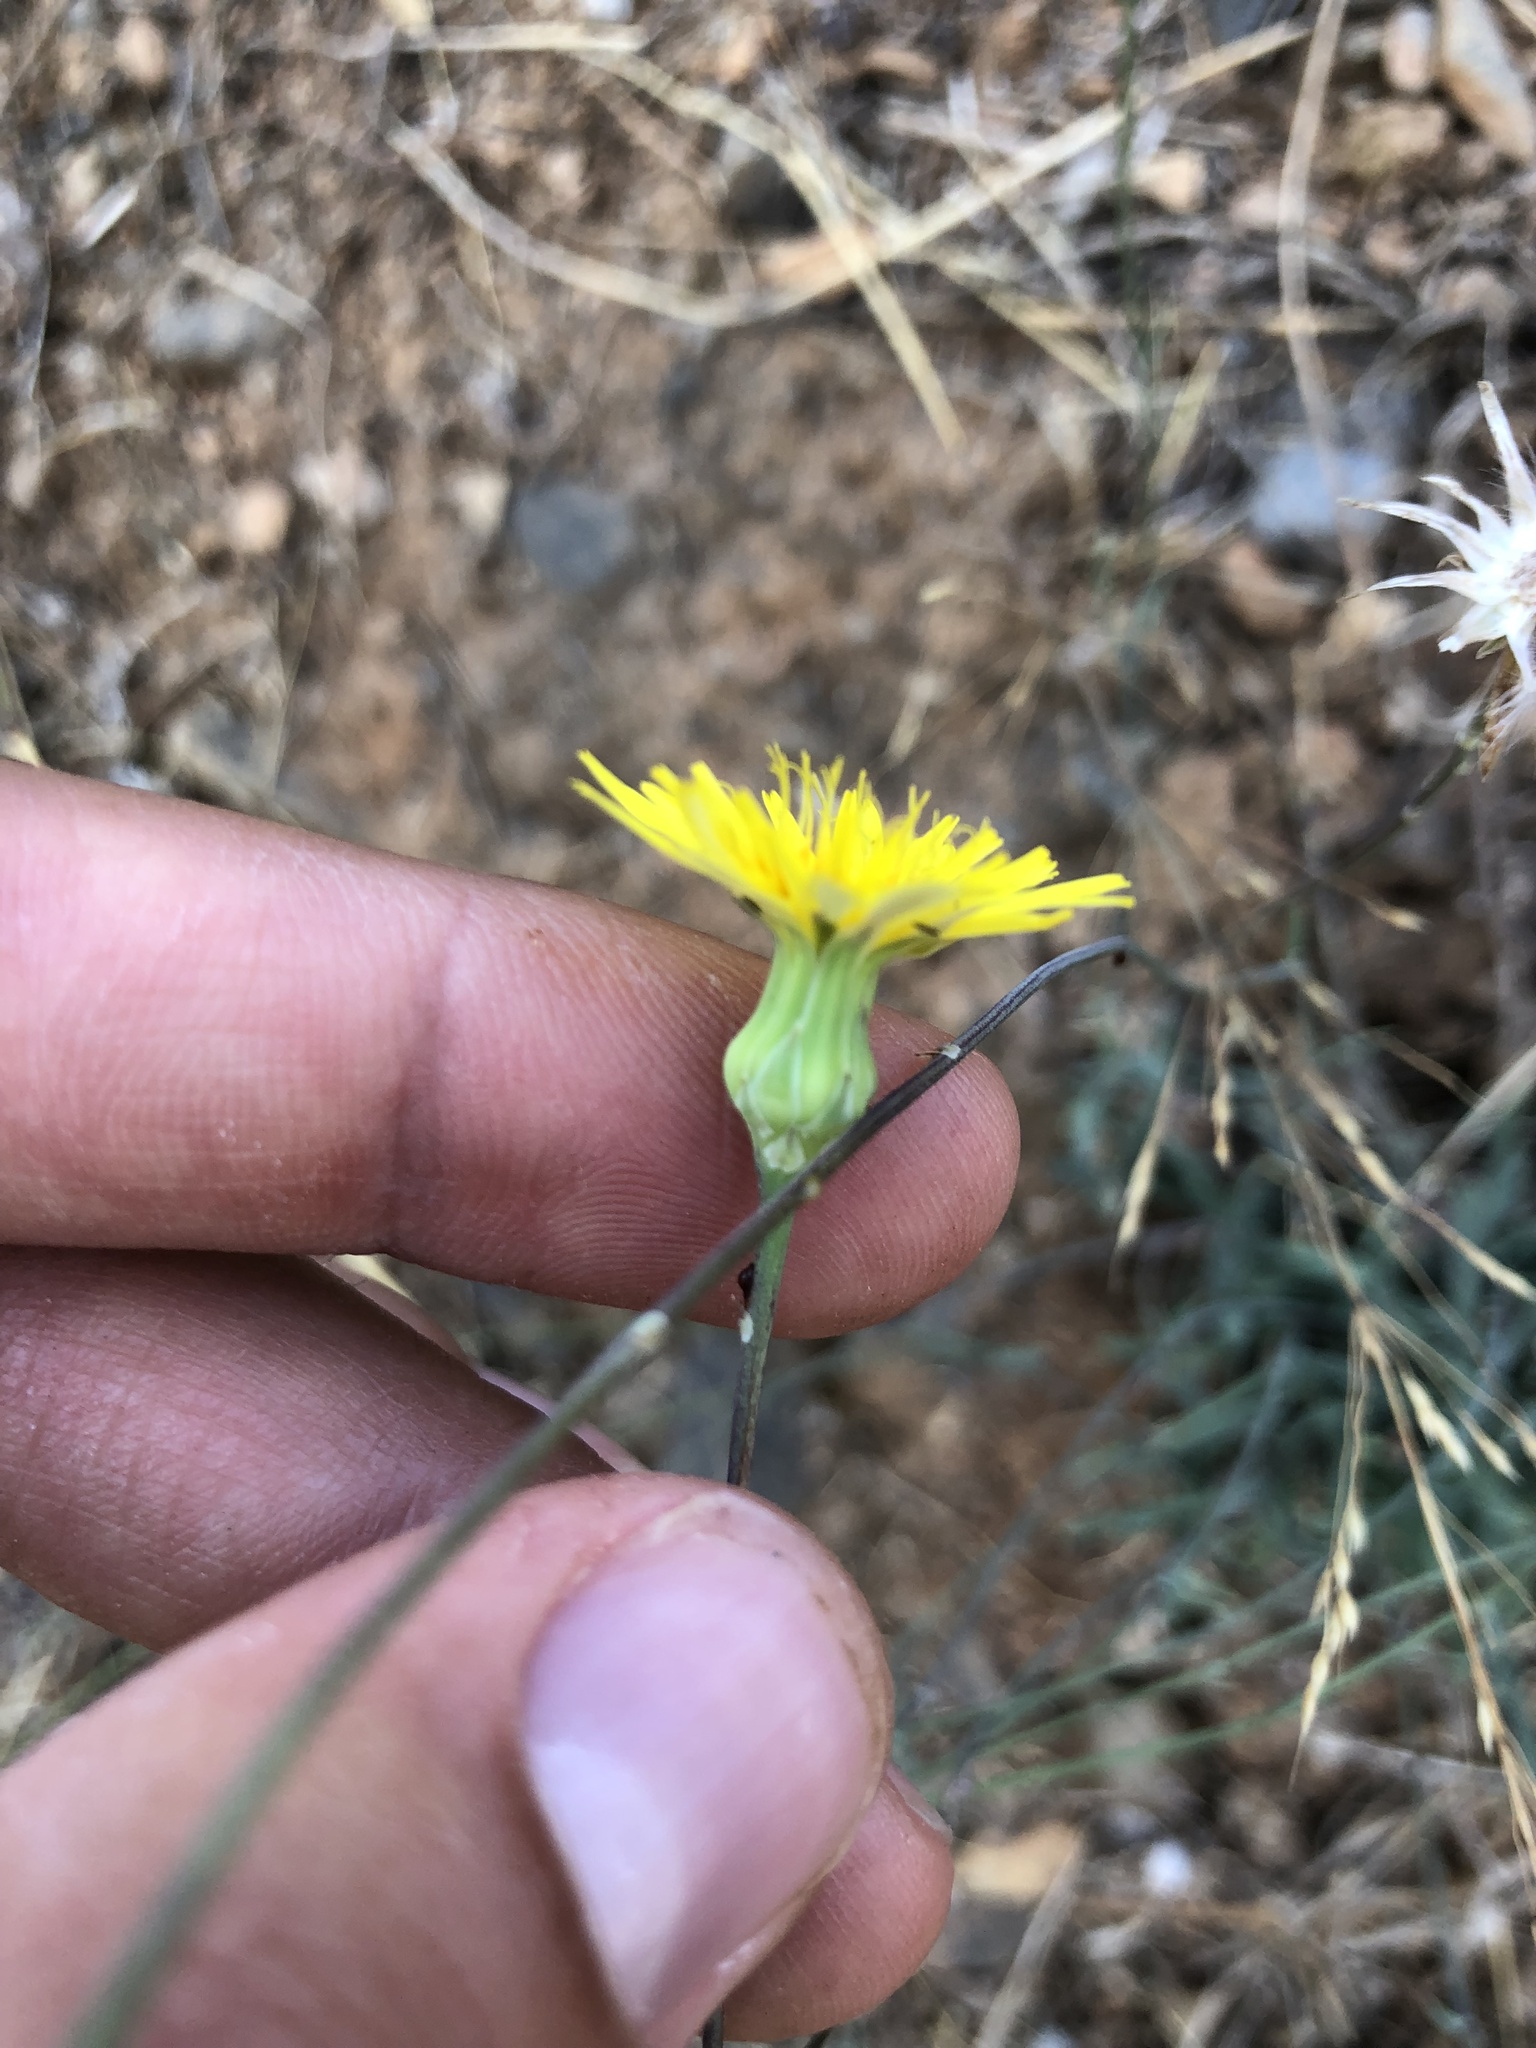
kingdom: Plantae
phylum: Tracheophyta
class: Magnoliopsida
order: Asterales
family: Asteraceae
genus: Reichardia
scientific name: Reichardia picroides
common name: Common brighteyes
